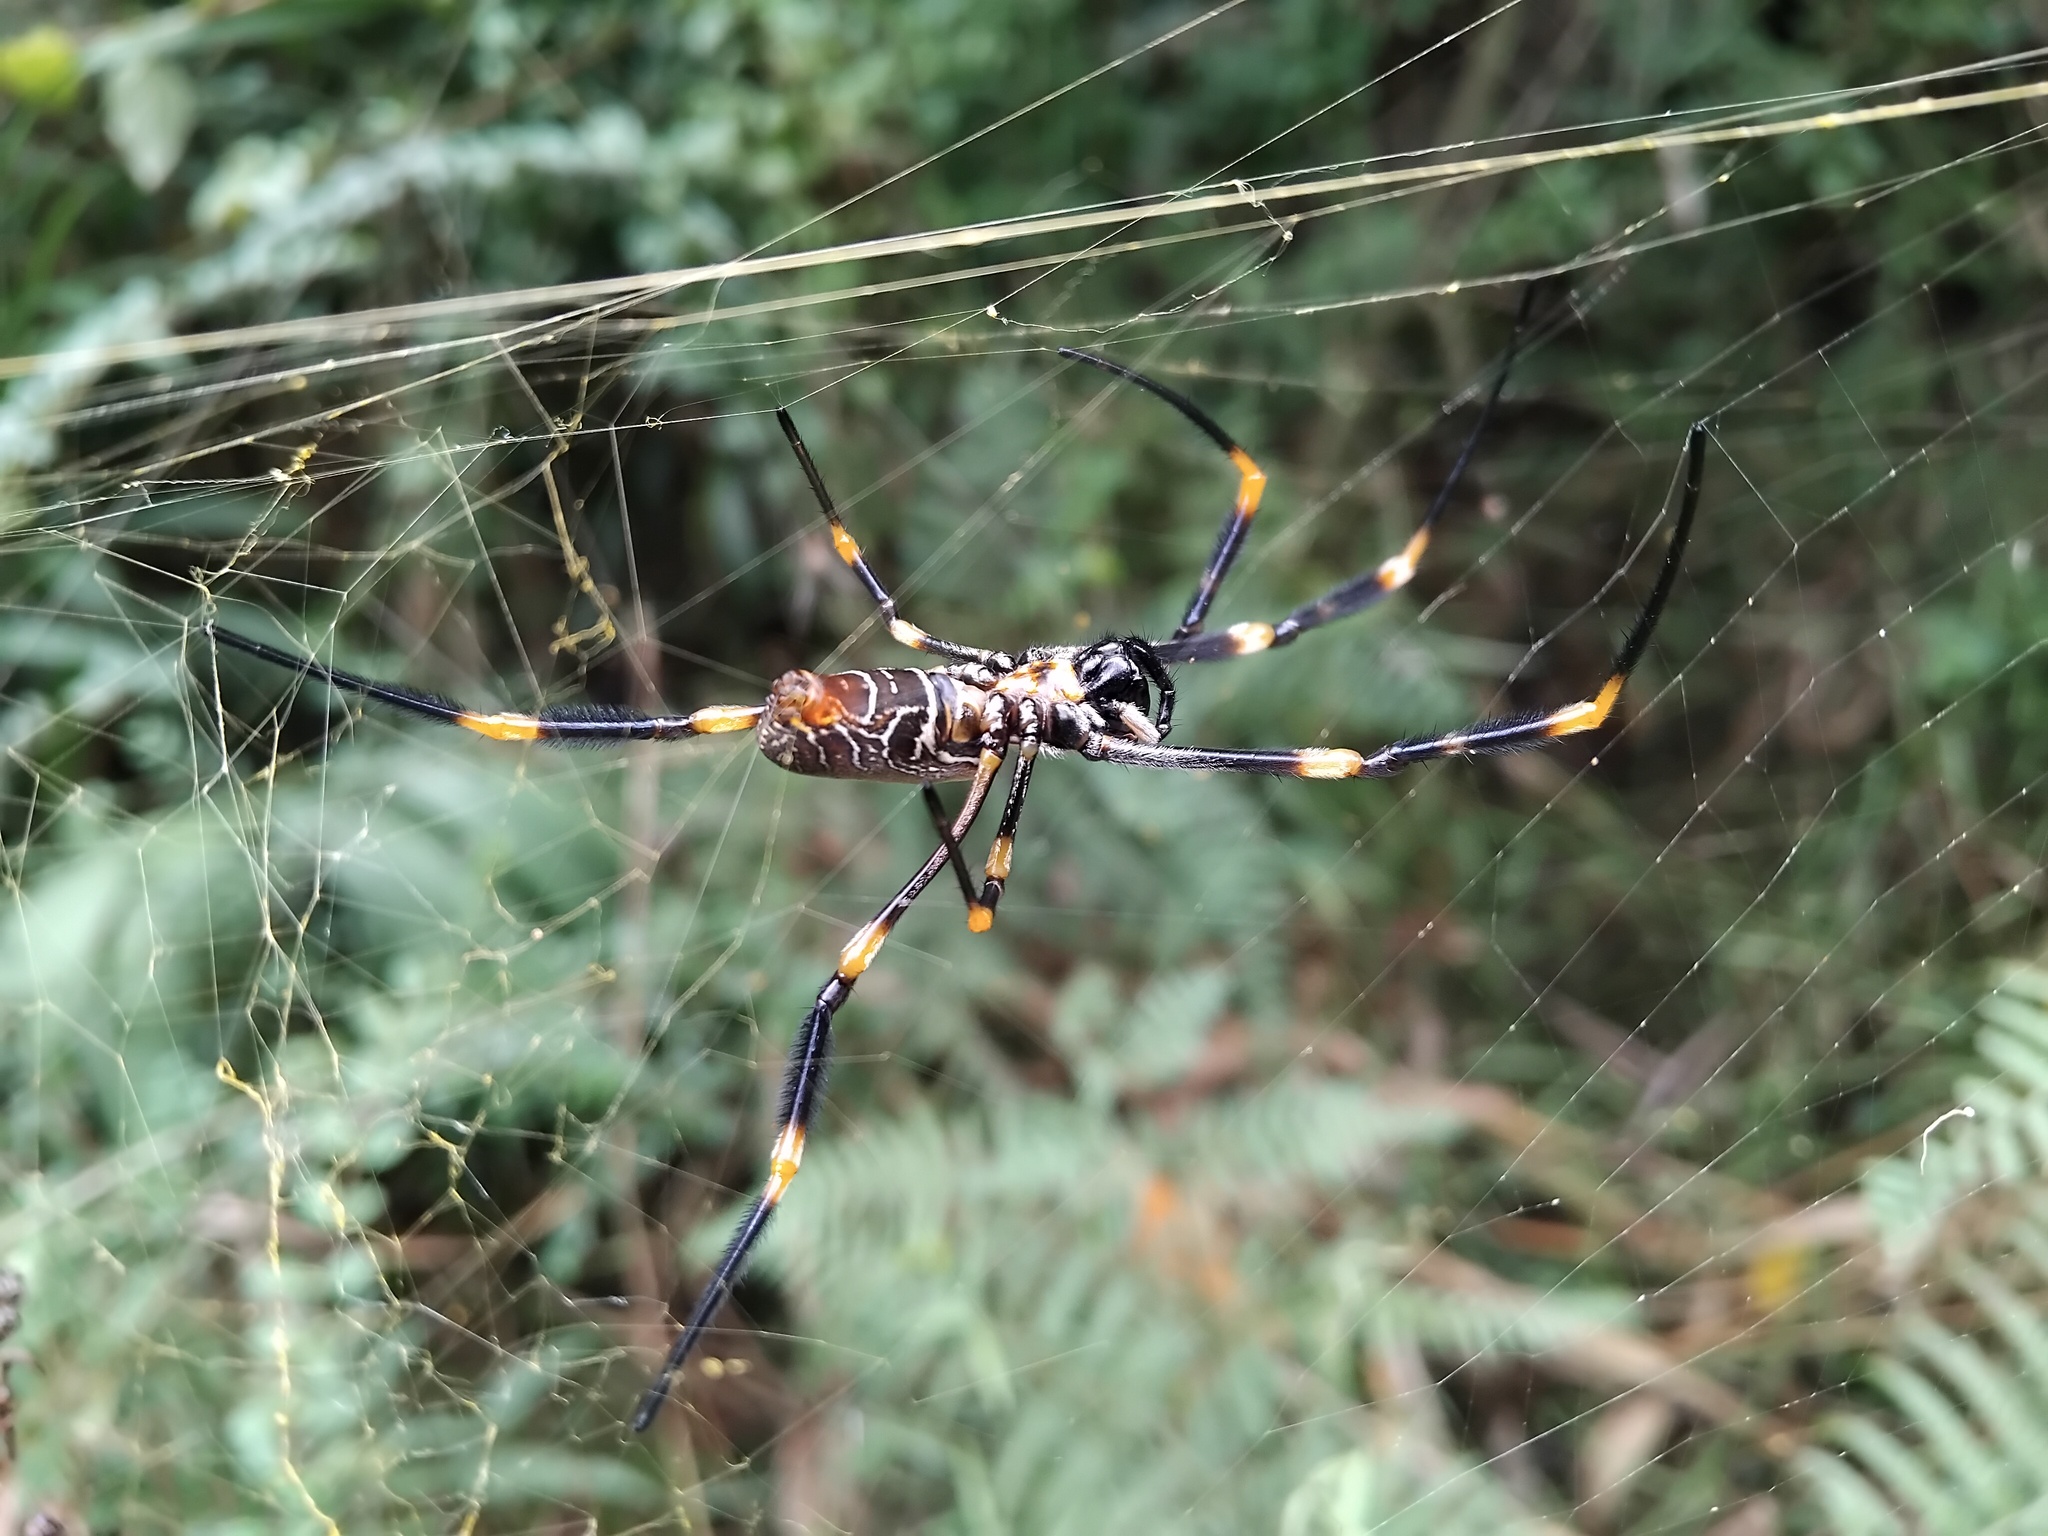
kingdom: Animalia
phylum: Arthropoda
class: Arachnida
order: Araneae
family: Araneidae
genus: Trichonephila
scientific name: Trichonephila plumipes
